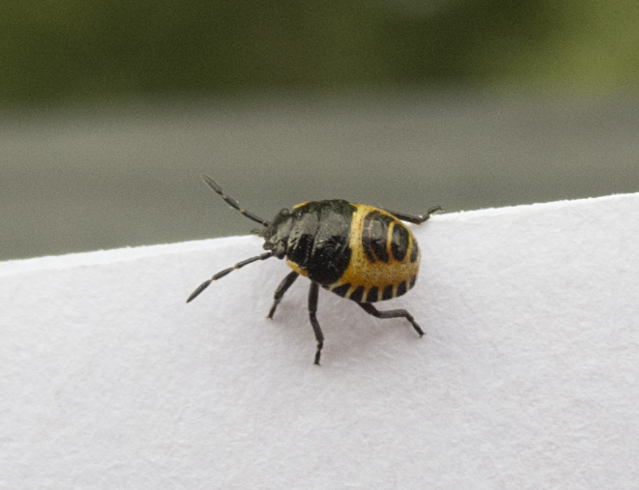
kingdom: Animalia
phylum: Arthropoda
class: Insecta
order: Hemiptera
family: Pentatomidae
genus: Eurydema
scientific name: Eurydema oleracea
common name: Cabbage bug
